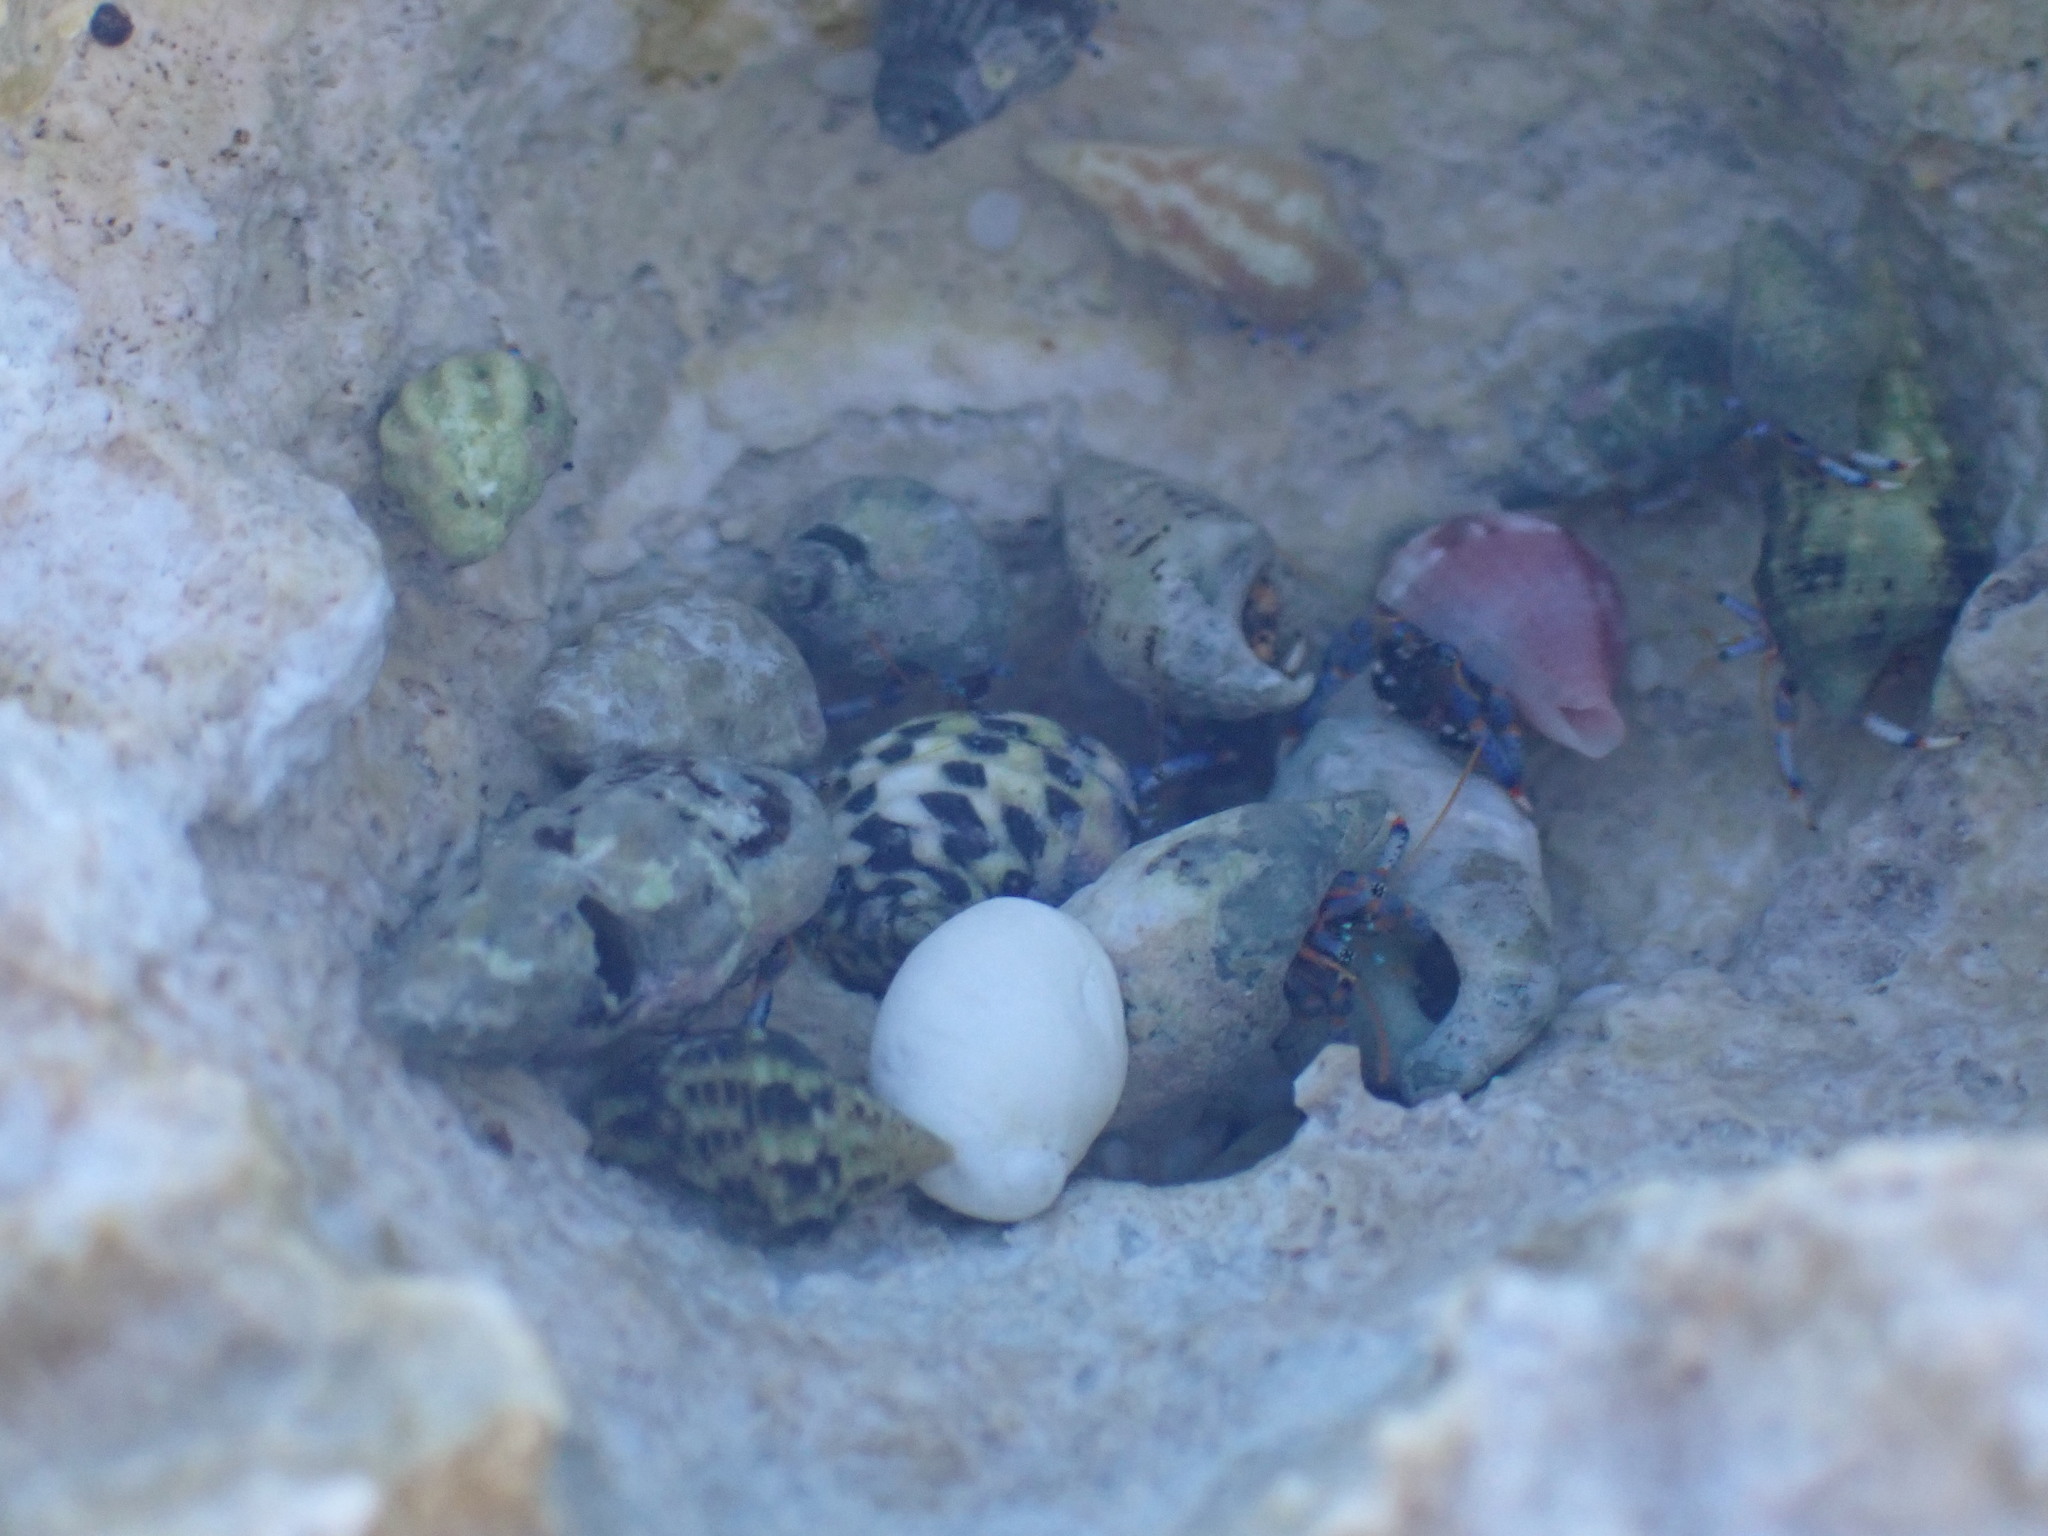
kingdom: Animalia
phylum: Arthropoda
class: Malacostraca
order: Decapoda
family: Diogenidae
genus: Clibanarius
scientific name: Clibanarius tricolor
